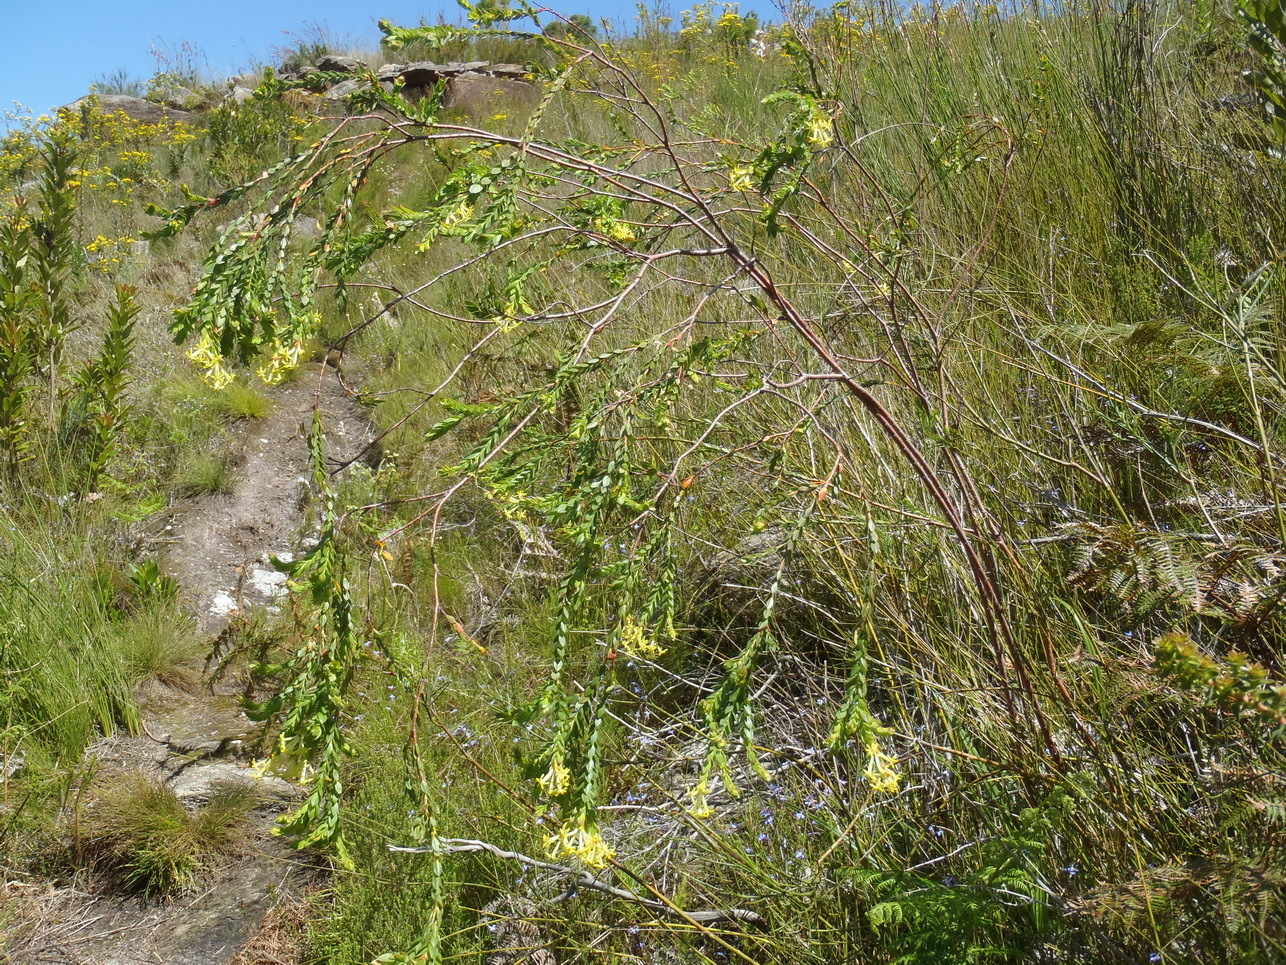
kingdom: Plantae
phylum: Tracheophyta
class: Magnoliopsida
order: Malvales
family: Thymelaeaceae
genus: Gnidia
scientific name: Gnidia oppositifolia
